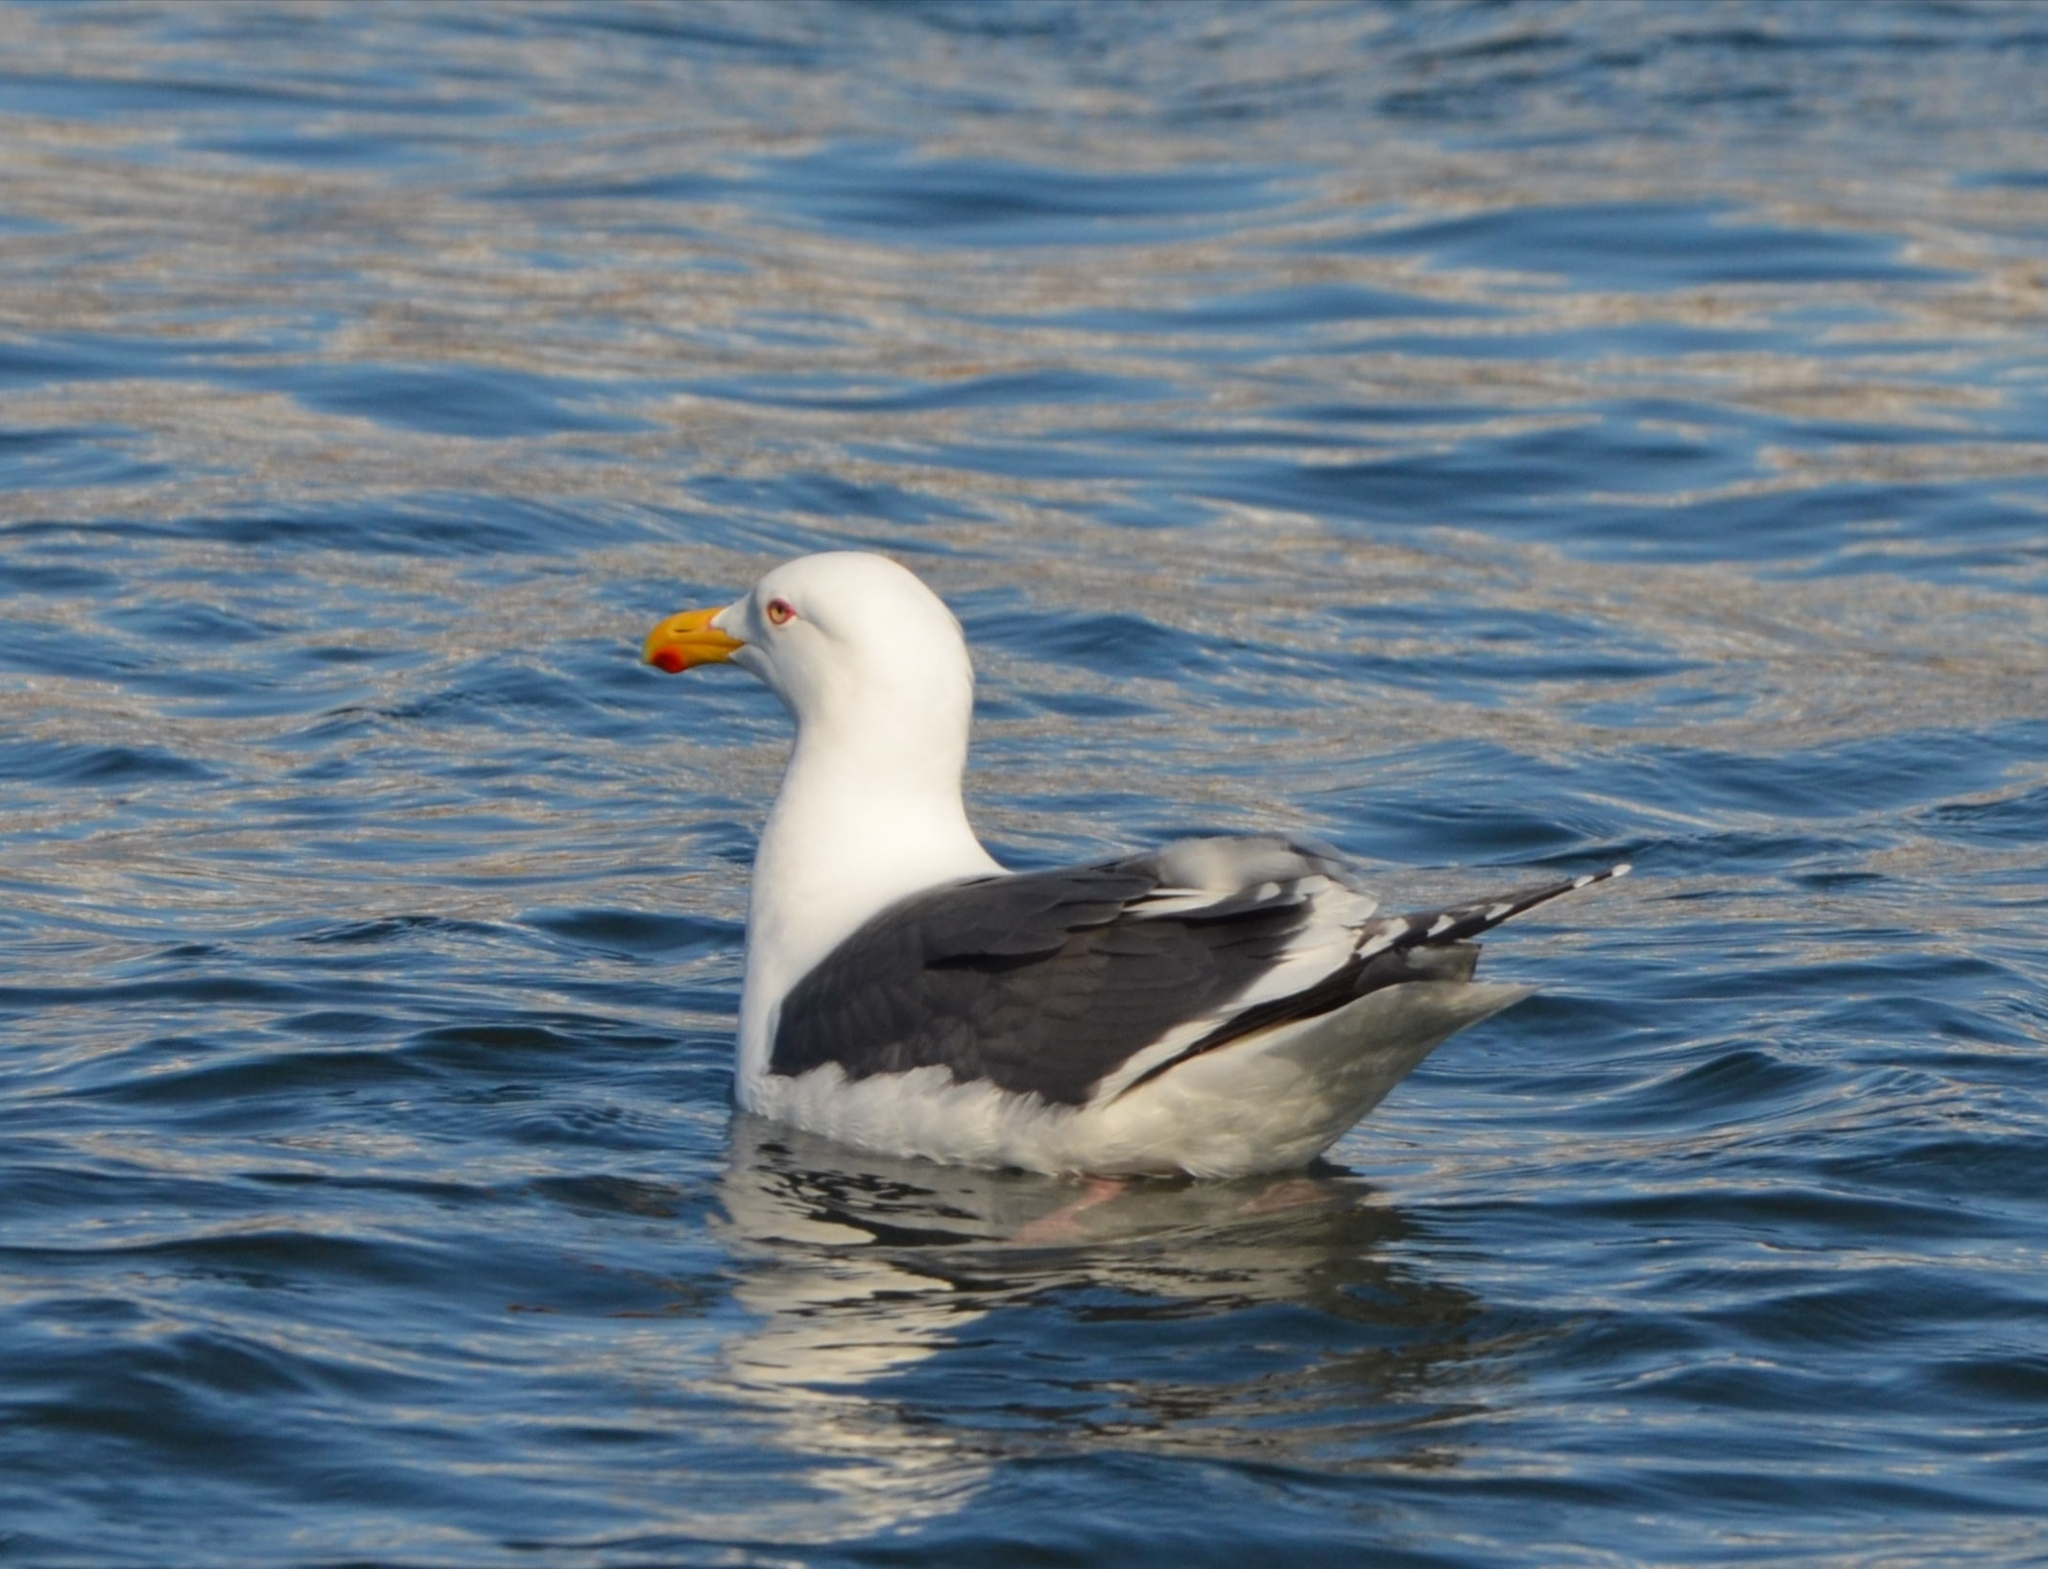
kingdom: Animalia
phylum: Chordata
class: Aves
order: Charadriiformes
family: Laridae
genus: Larus
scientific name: Larus schistisagus
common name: Slaty-backed gull
